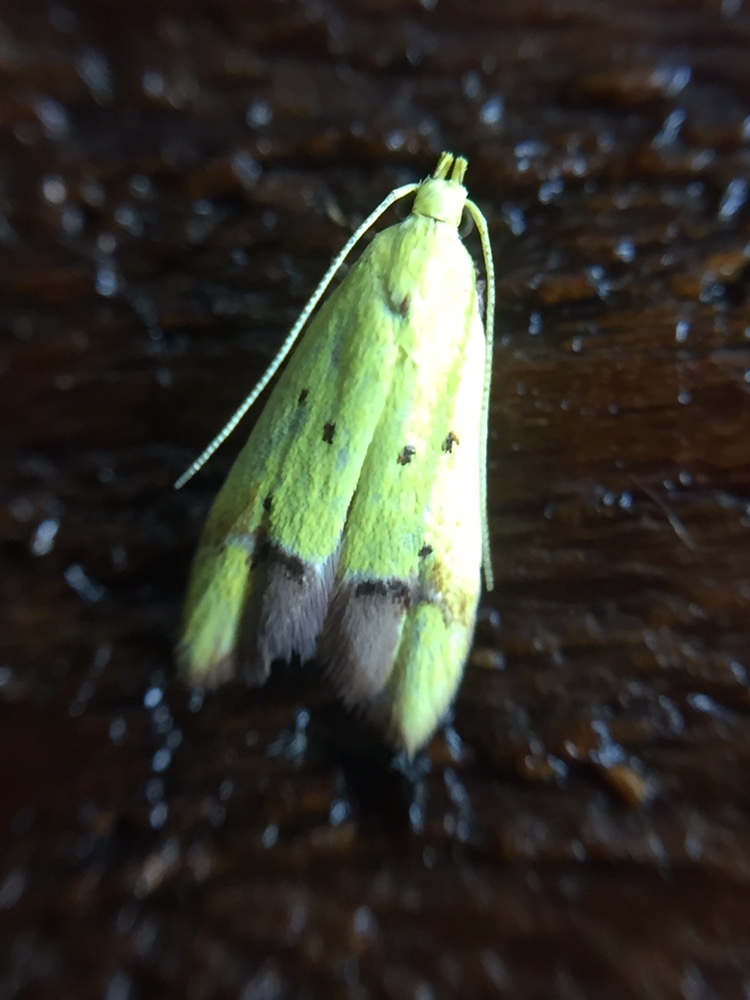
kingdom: Animalia
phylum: Arthropoda
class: Insecta
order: Lepidoptera
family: Oecophoridae
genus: Gymnobathra
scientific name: Gymnobathra flavidella
